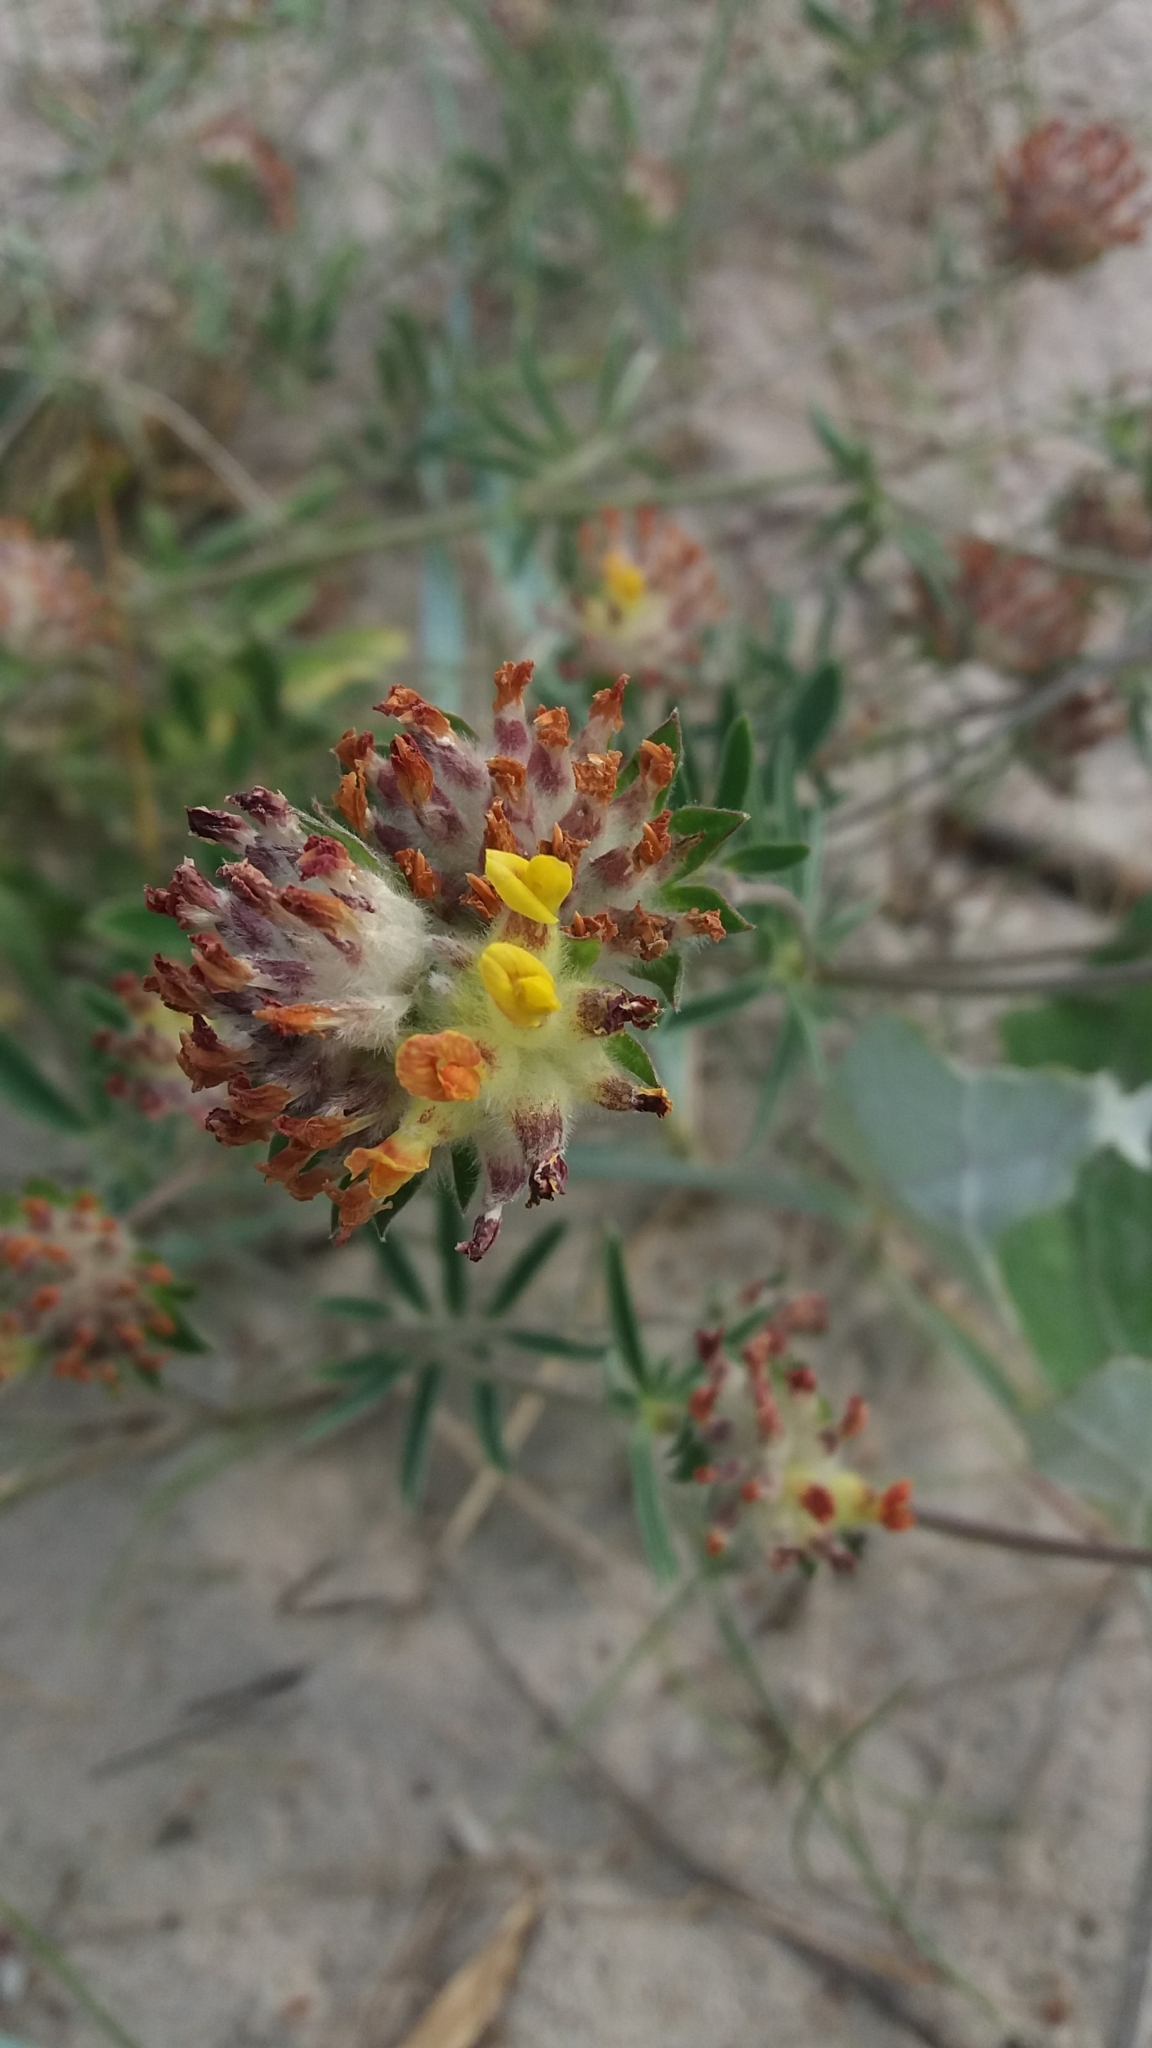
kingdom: Plantae
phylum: Tracheophyta
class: Magnoliopsida
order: Fabales
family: Fabaceae
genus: Anthyllis
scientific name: Anthyllis vulneraria
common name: Kidney vetch
